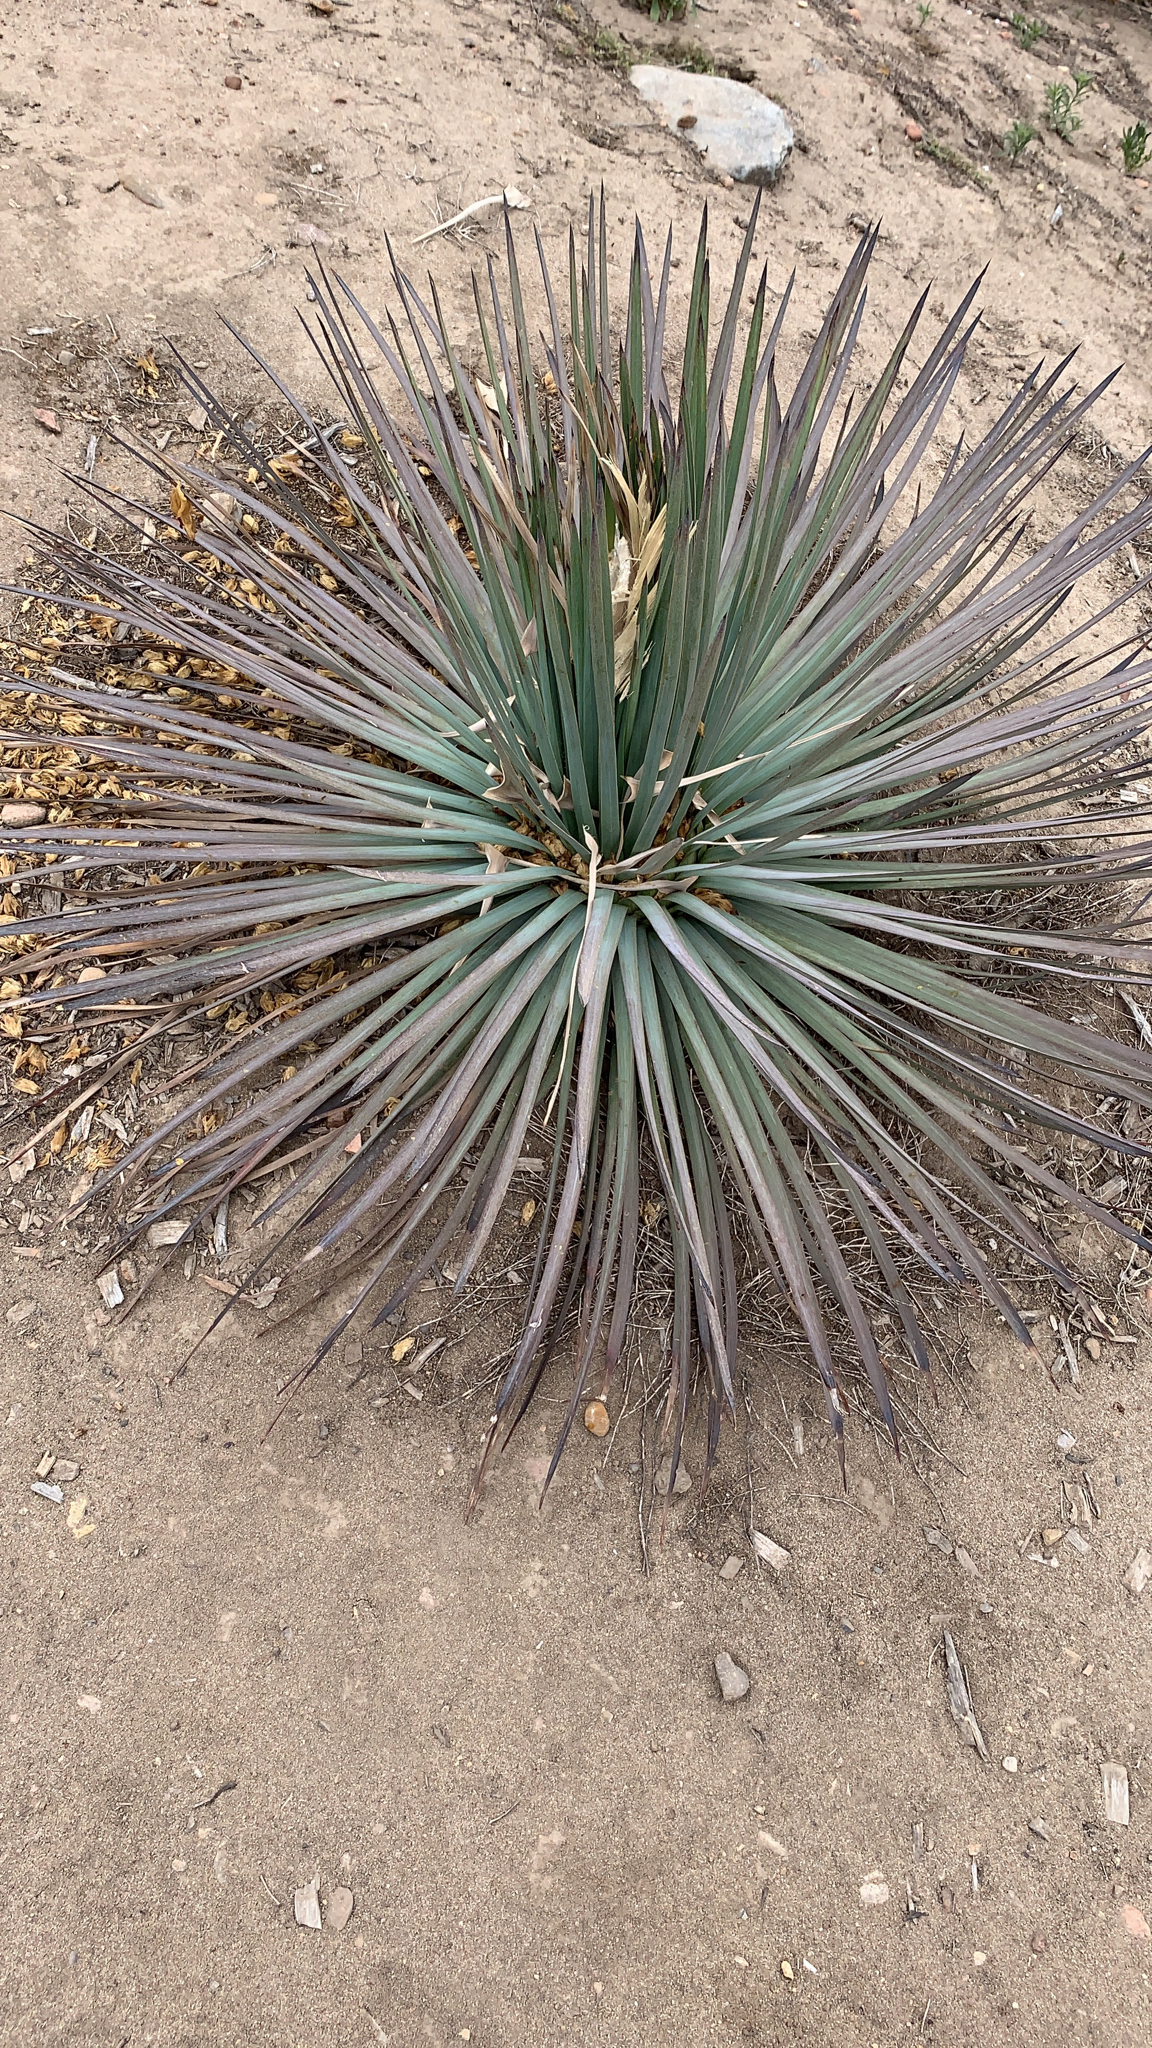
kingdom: Plantae
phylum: Tracheophyta
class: Liliopsida
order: Asparagales
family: Asparagaceae
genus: Hesperoyucca
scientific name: Hesperoyucca whipplei
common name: Our lord's-candle
